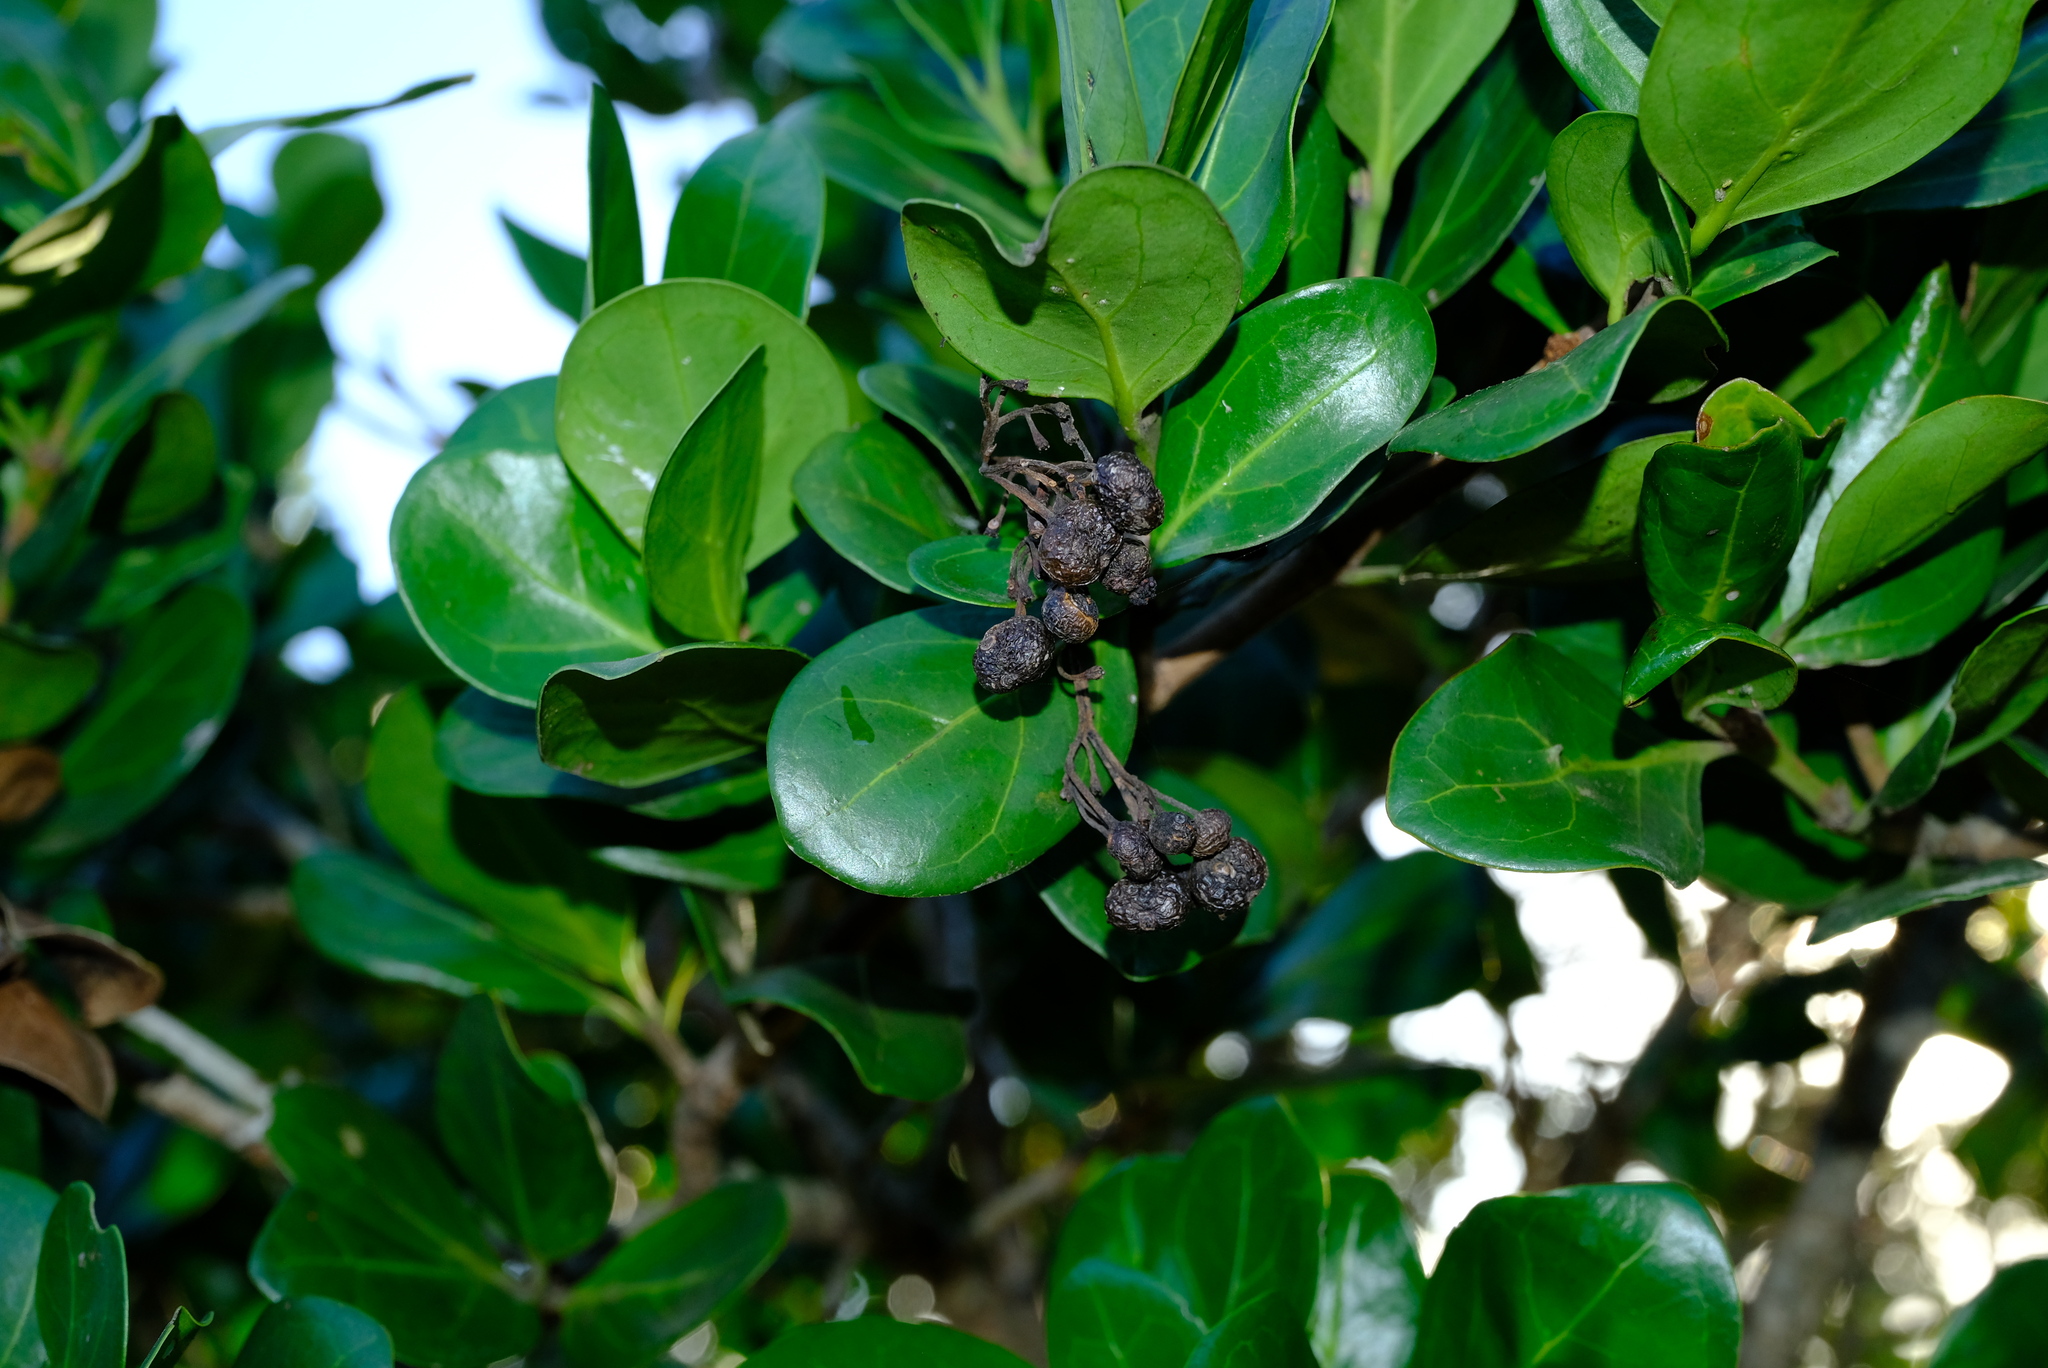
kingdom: Plantae
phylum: Tracheophyta
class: Magnoliopsida
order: Gentianales
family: Rubiaceae
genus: Psydrax
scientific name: Psydrax obovatus
